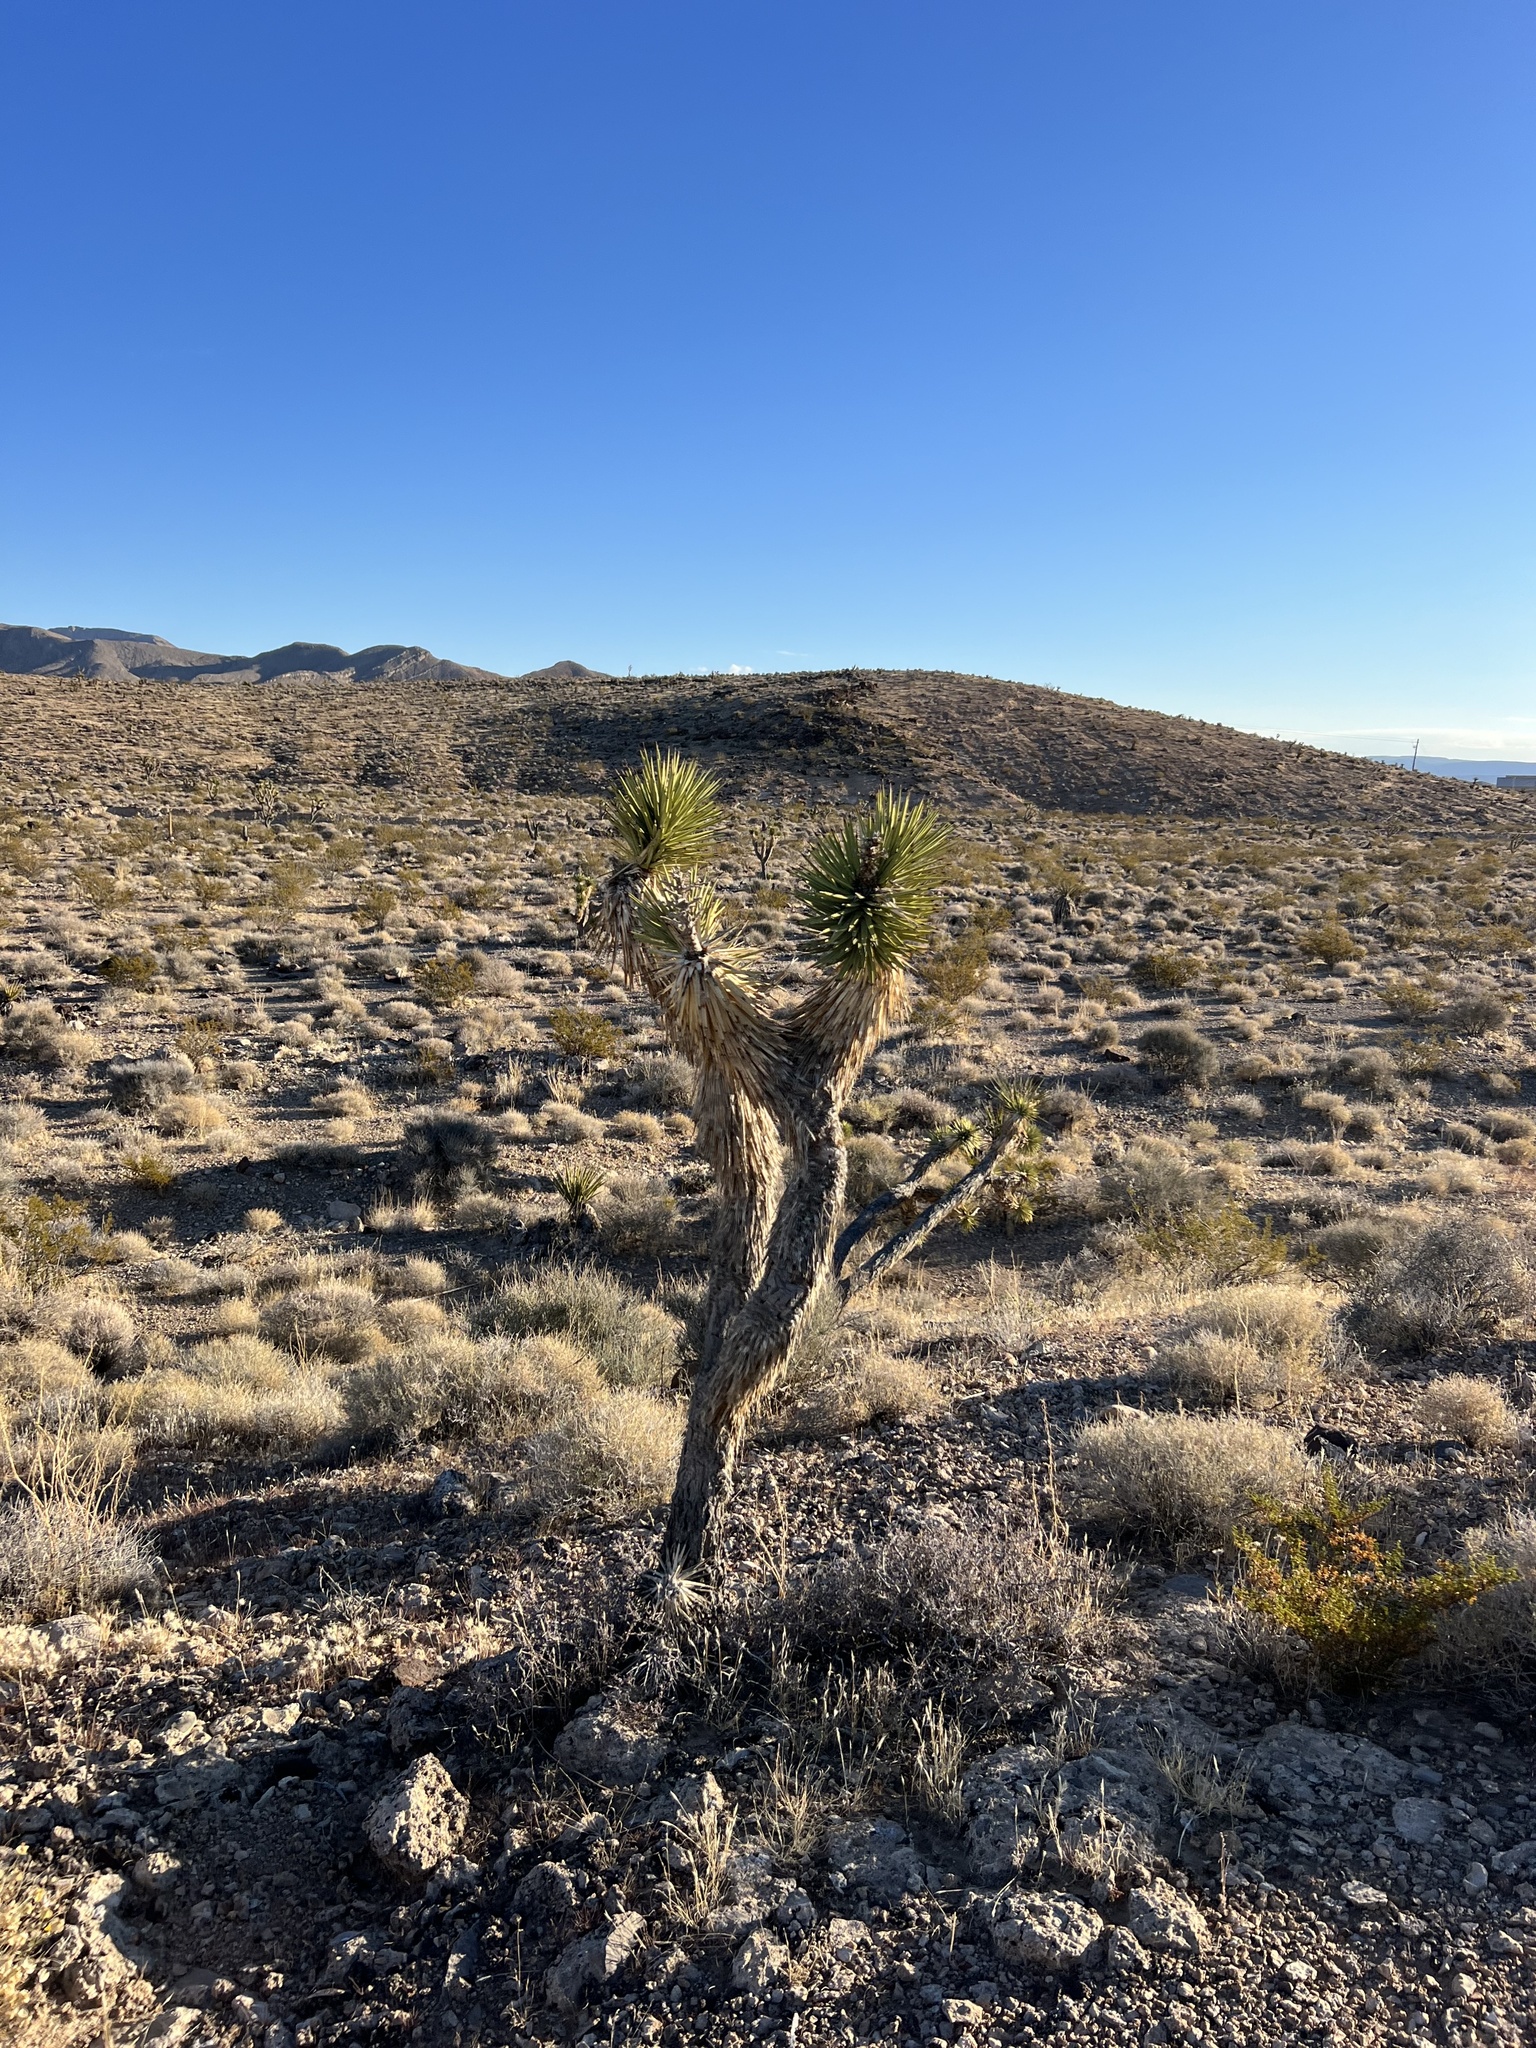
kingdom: Plantae
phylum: Tracheophyta
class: Liliopsida
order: Asparagales
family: Asparagaceae
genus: Yucca
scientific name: Yucca brevifolia
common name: Joshua tree
